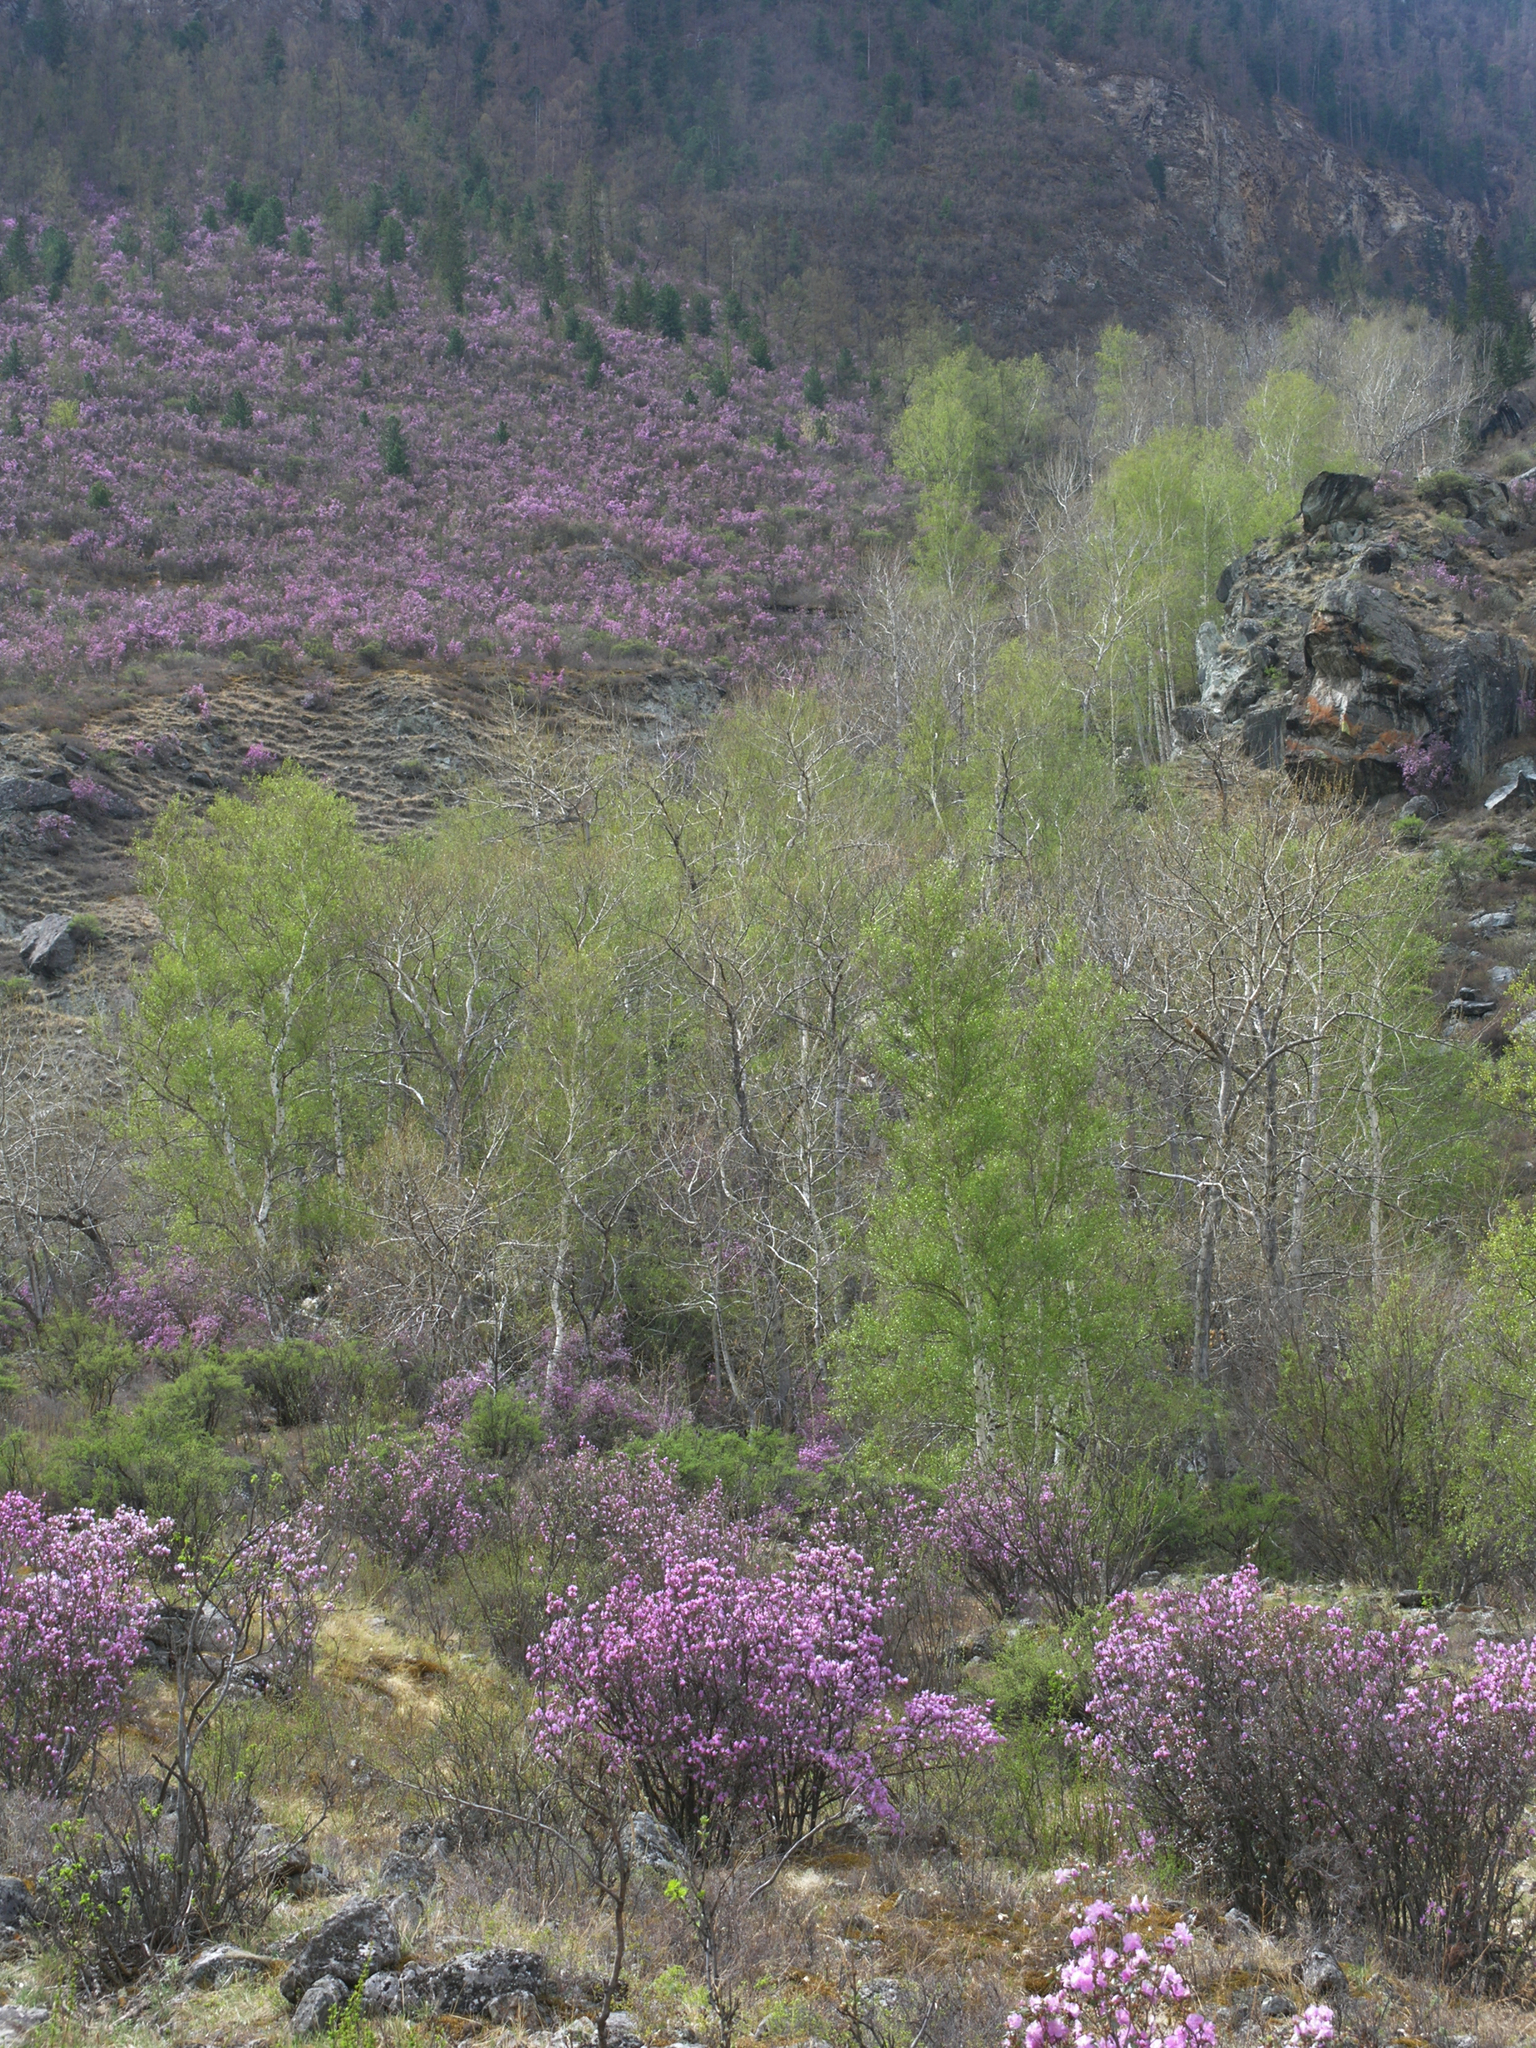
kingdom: Plantae
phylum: Tracheophyta
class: Magnoliopsida
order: Ericales
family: Ericaceae
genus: Rhododendron
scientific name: Rhododendron dauricum
